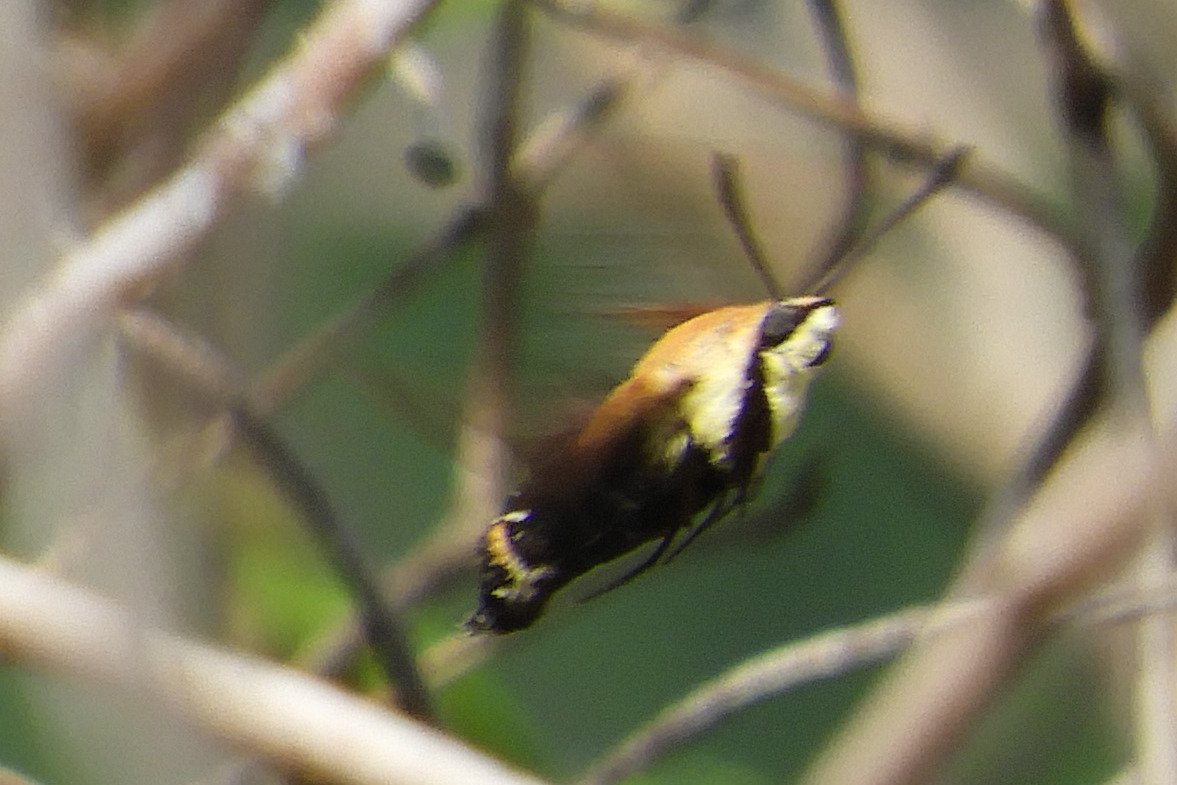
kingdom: Animalia
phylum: Arthropoda
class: Insecta
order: Lepidoptera
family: Sphingidae
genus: Hemaris
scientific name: Hemaris diffinis
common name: Bumblebee moth
